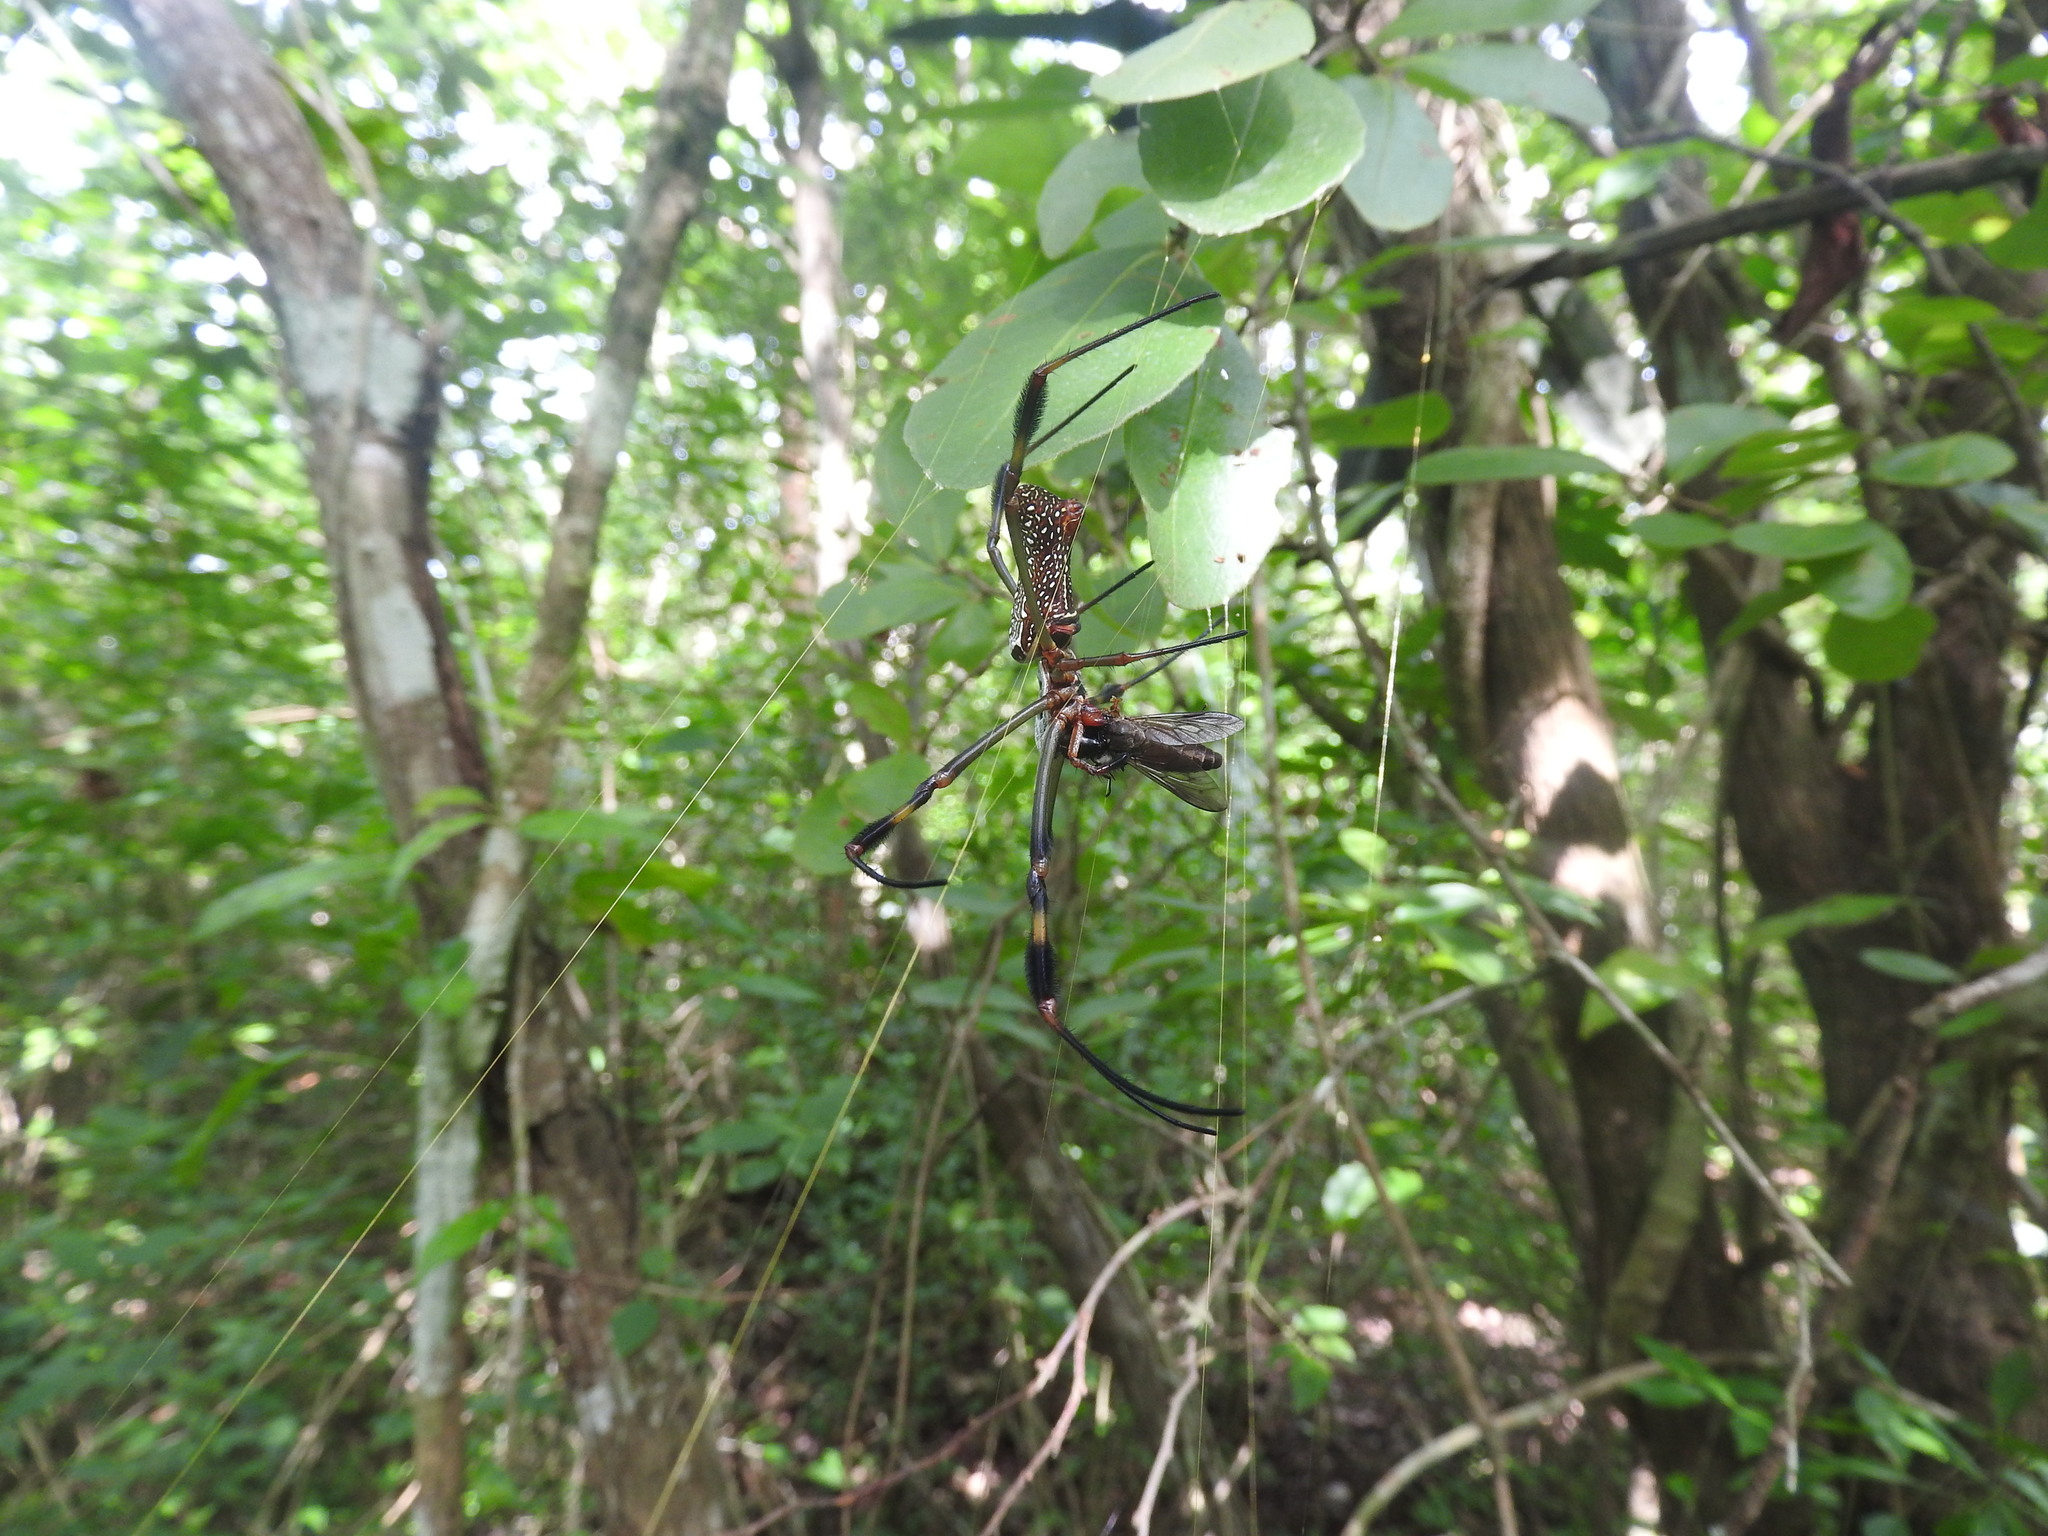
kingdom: Animalia
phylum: Arthropoda
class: Arachnida
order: Araneae
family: Araneidae
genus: Trichonephila
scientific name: Trichonephila clavipes
